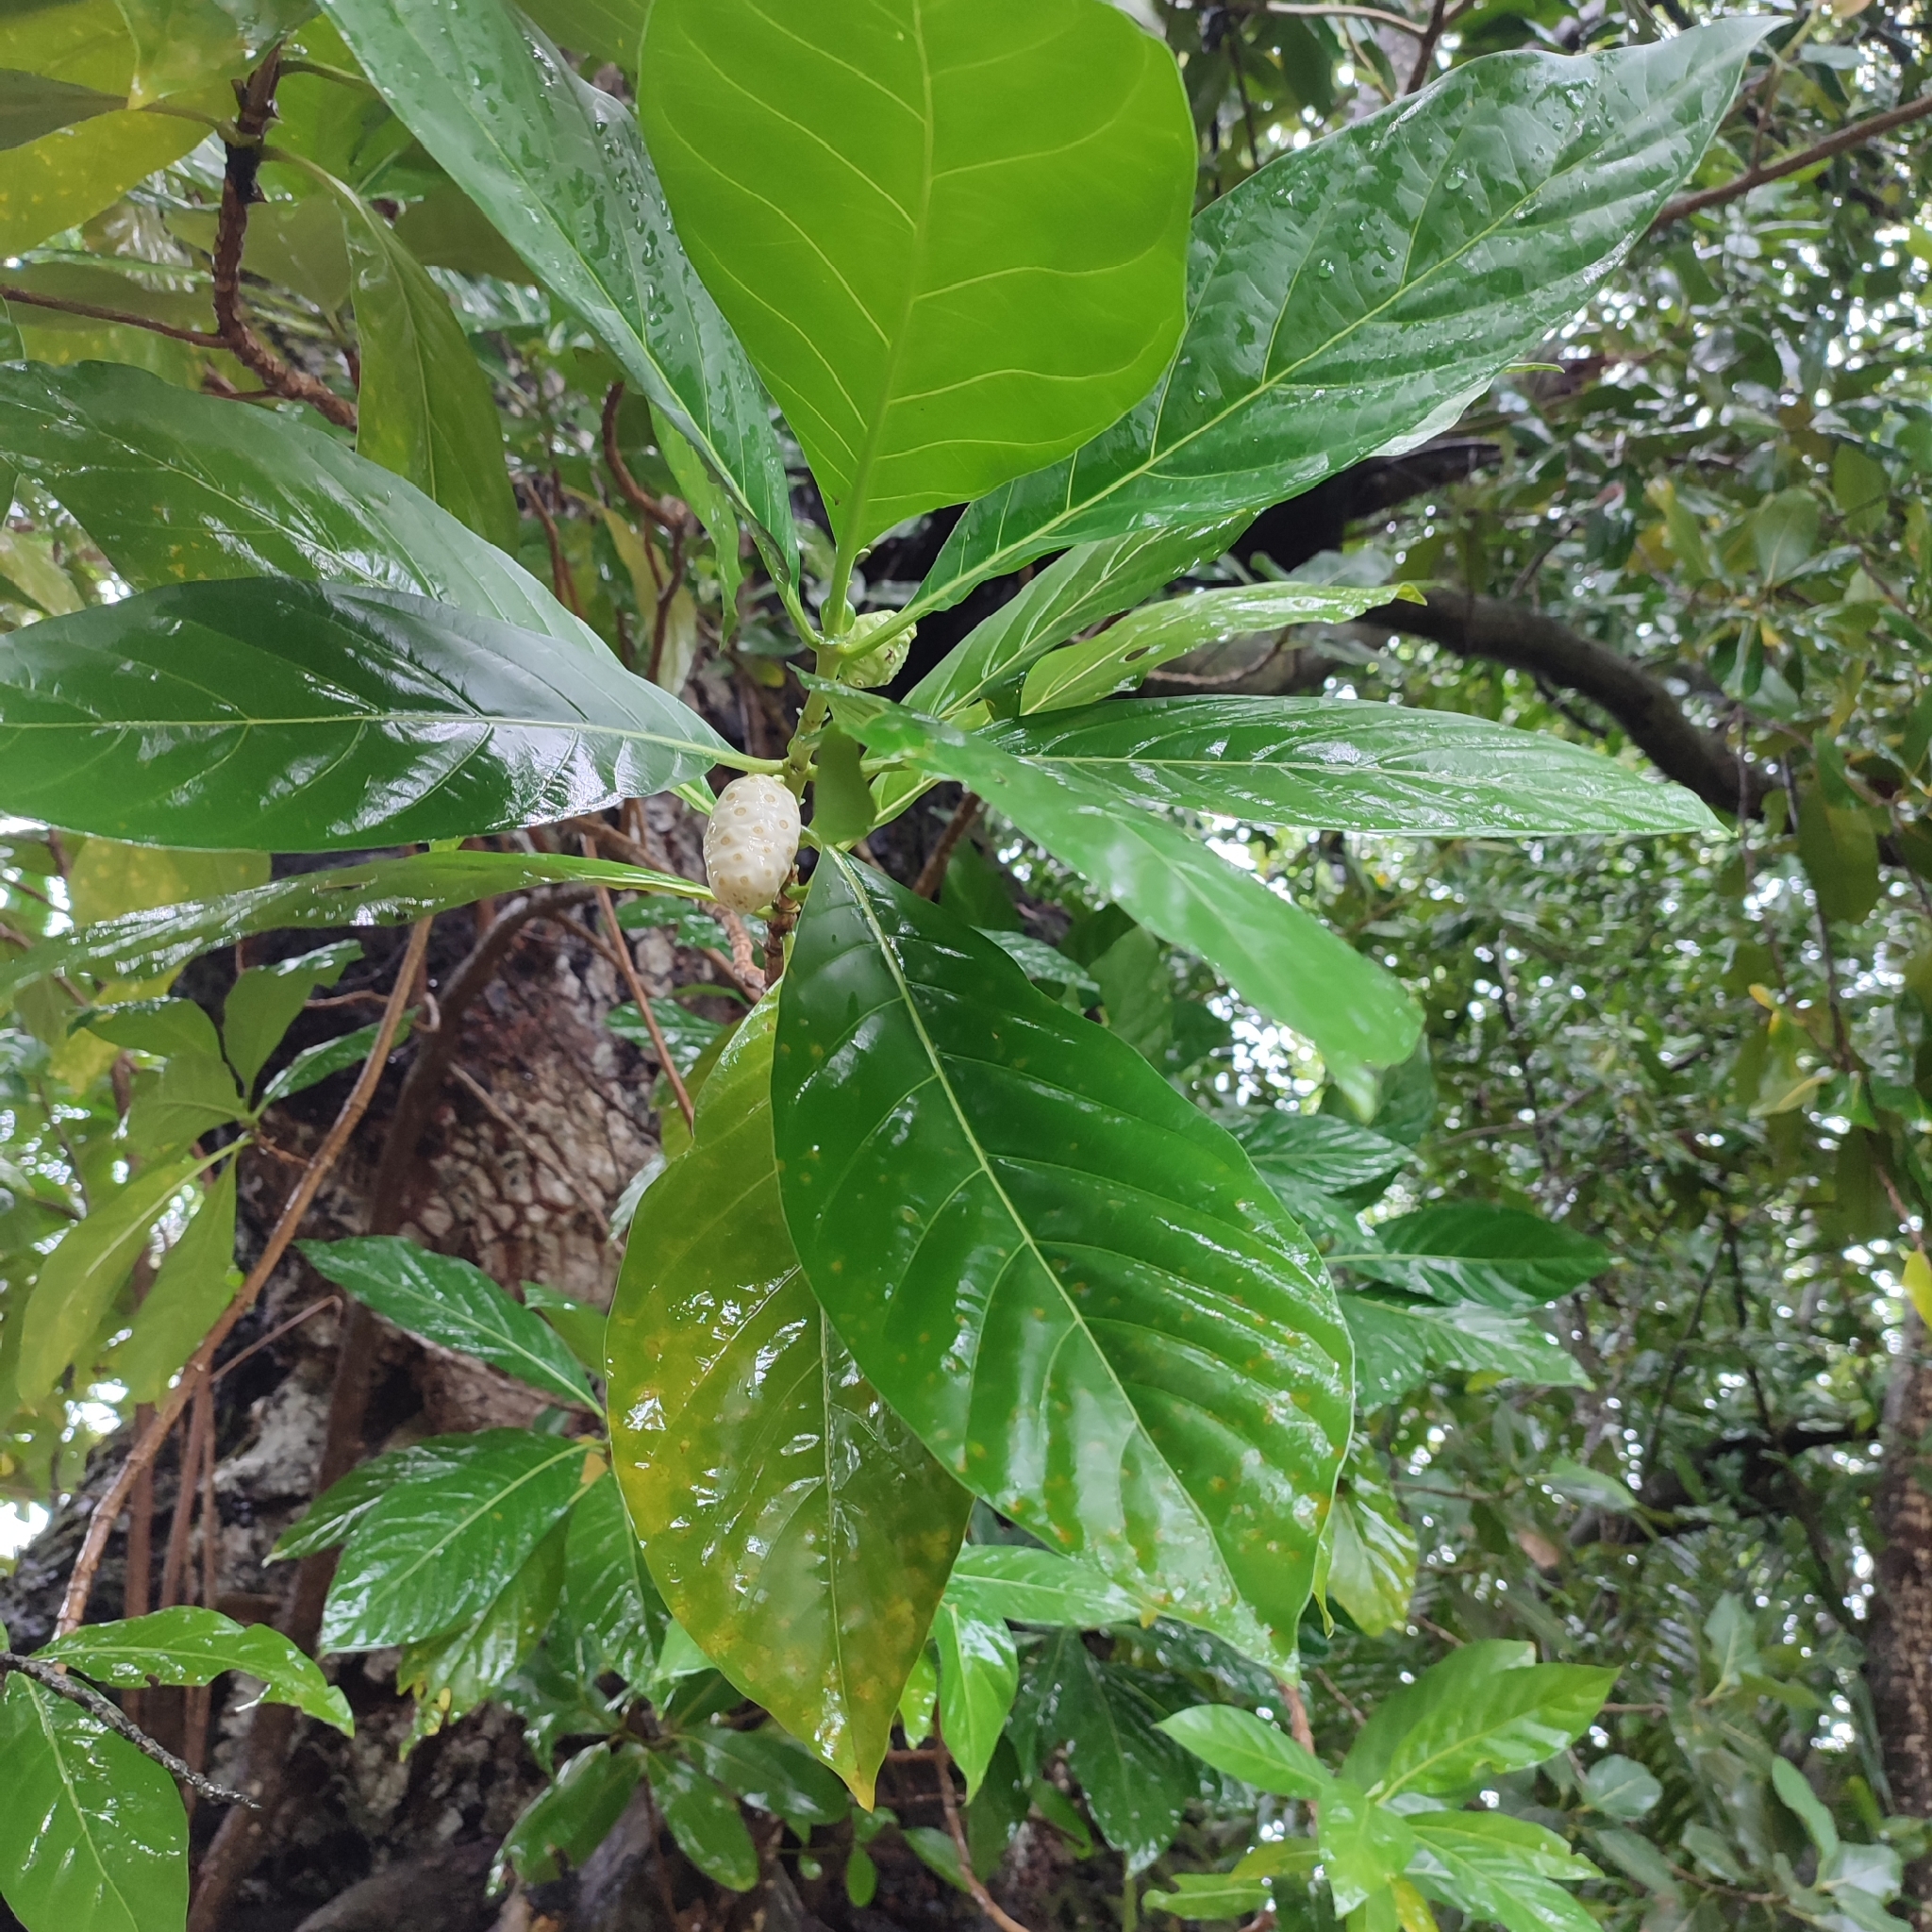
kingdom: Plantae
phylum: Tracheophyta
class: Magnoliopsida
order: Gentianales
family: Rubiaceae
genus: Morinda
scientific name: Morinda citrifolia
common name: Indian-mulberry
